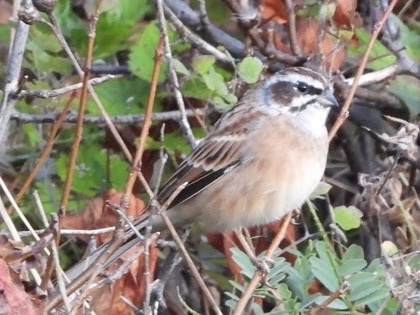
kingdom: Animalia
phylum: Chordata
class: Aves
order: Passeriformes
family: Emberizidae
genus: Emberiza
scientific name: Emberiza cioides
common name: Meadow bunting
